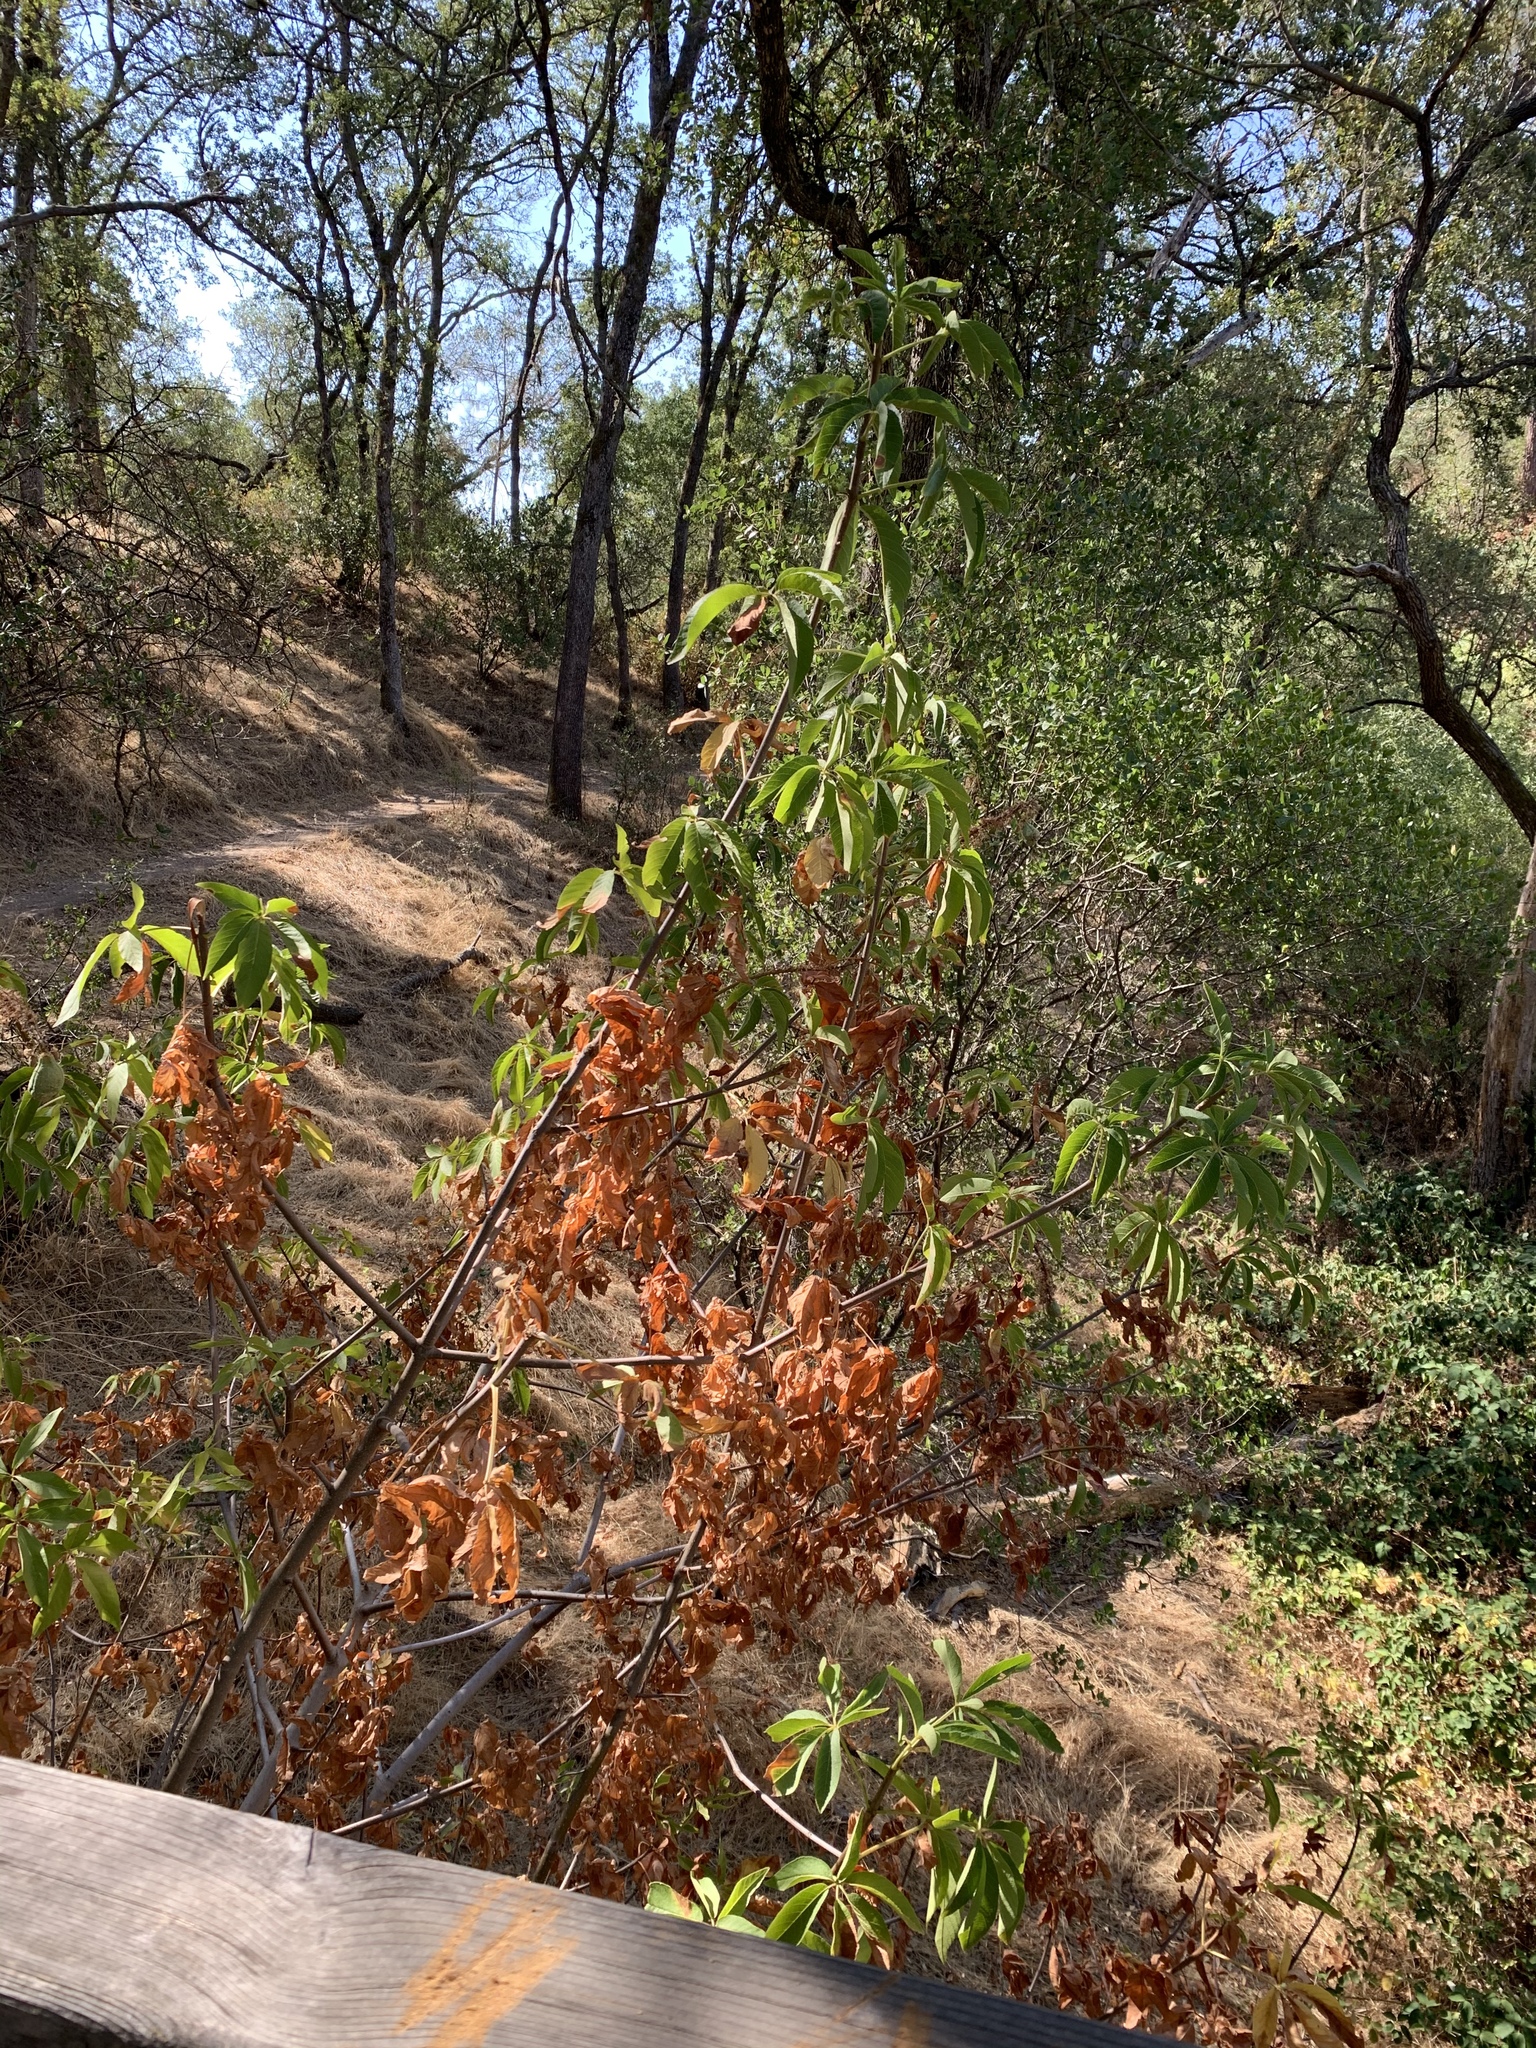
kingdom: Plantae
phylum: Tracheophyta
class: Magnoliopsida
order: Sapindales
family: Sapindaceae
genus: Aesculus
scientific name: Aesculus californica
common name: California buckeye
